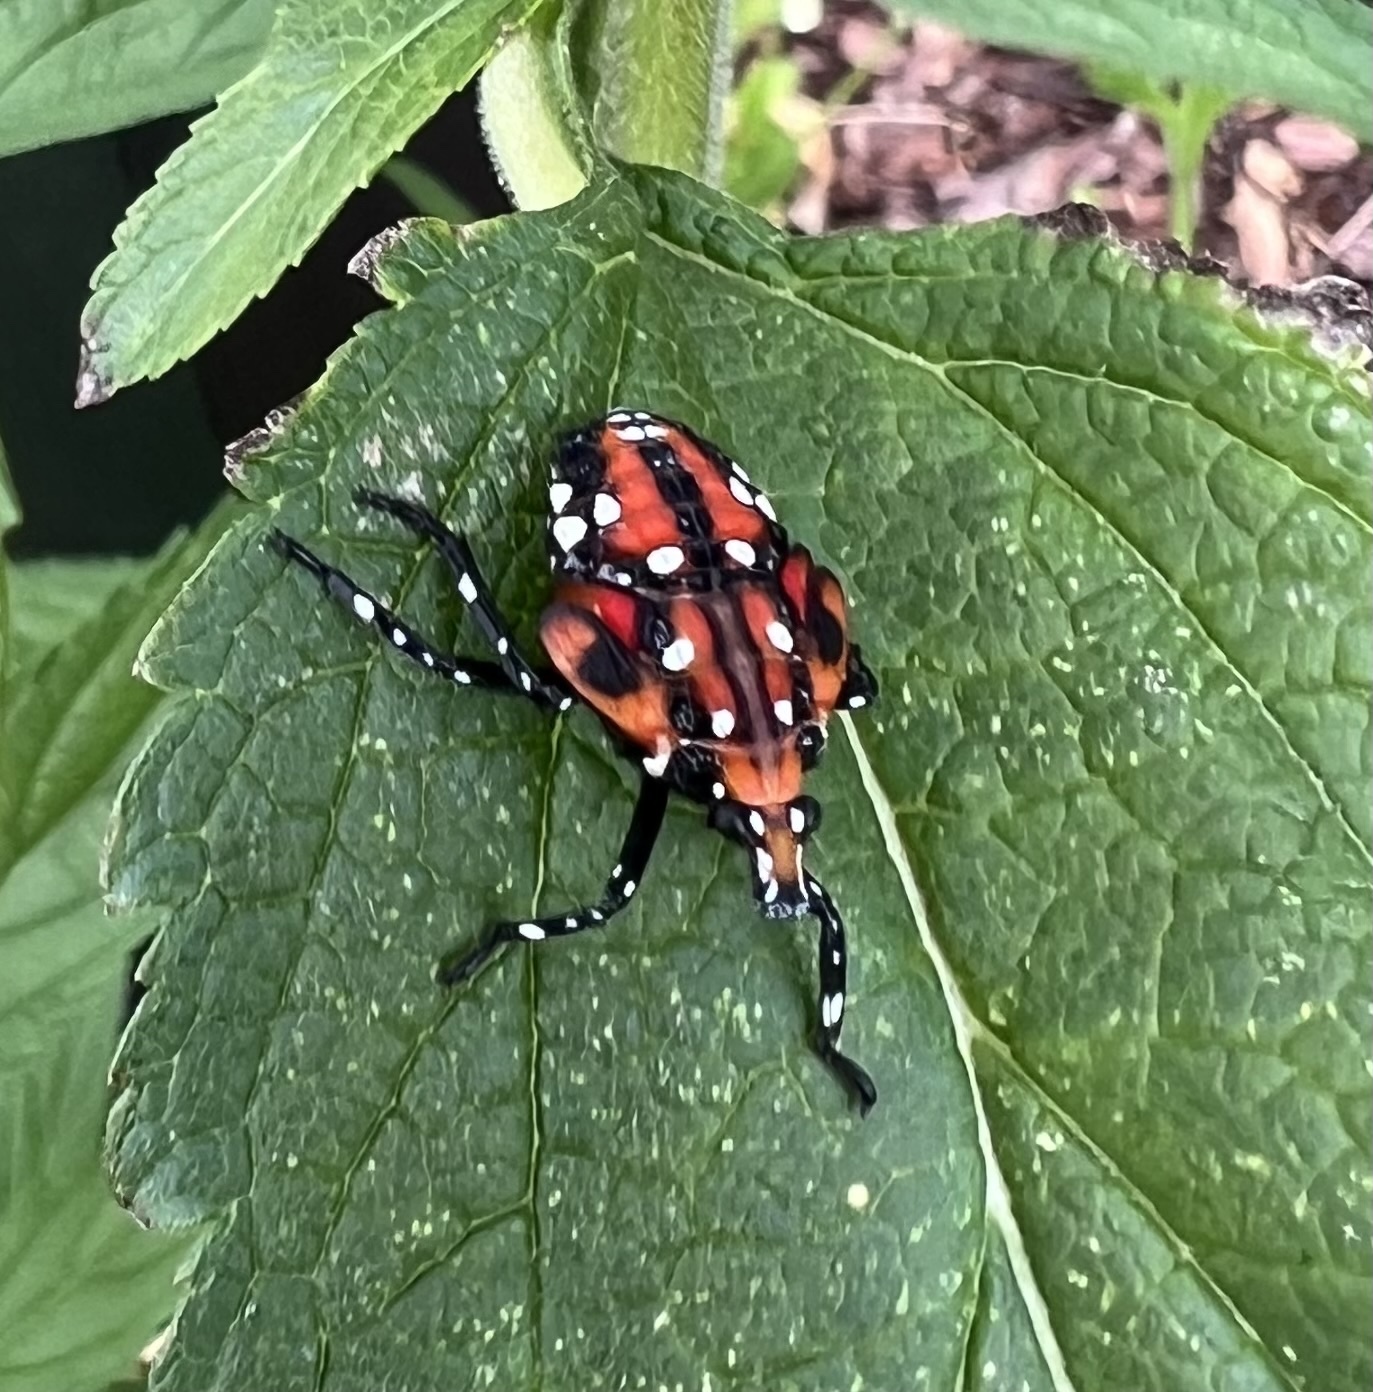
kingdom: Animalia
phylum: Arthropoda
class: Insecta
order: Hemiptera
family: Fulgoridae
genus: Lycorma
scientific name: Lycorma delicatula
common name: Spotted lanternfly
